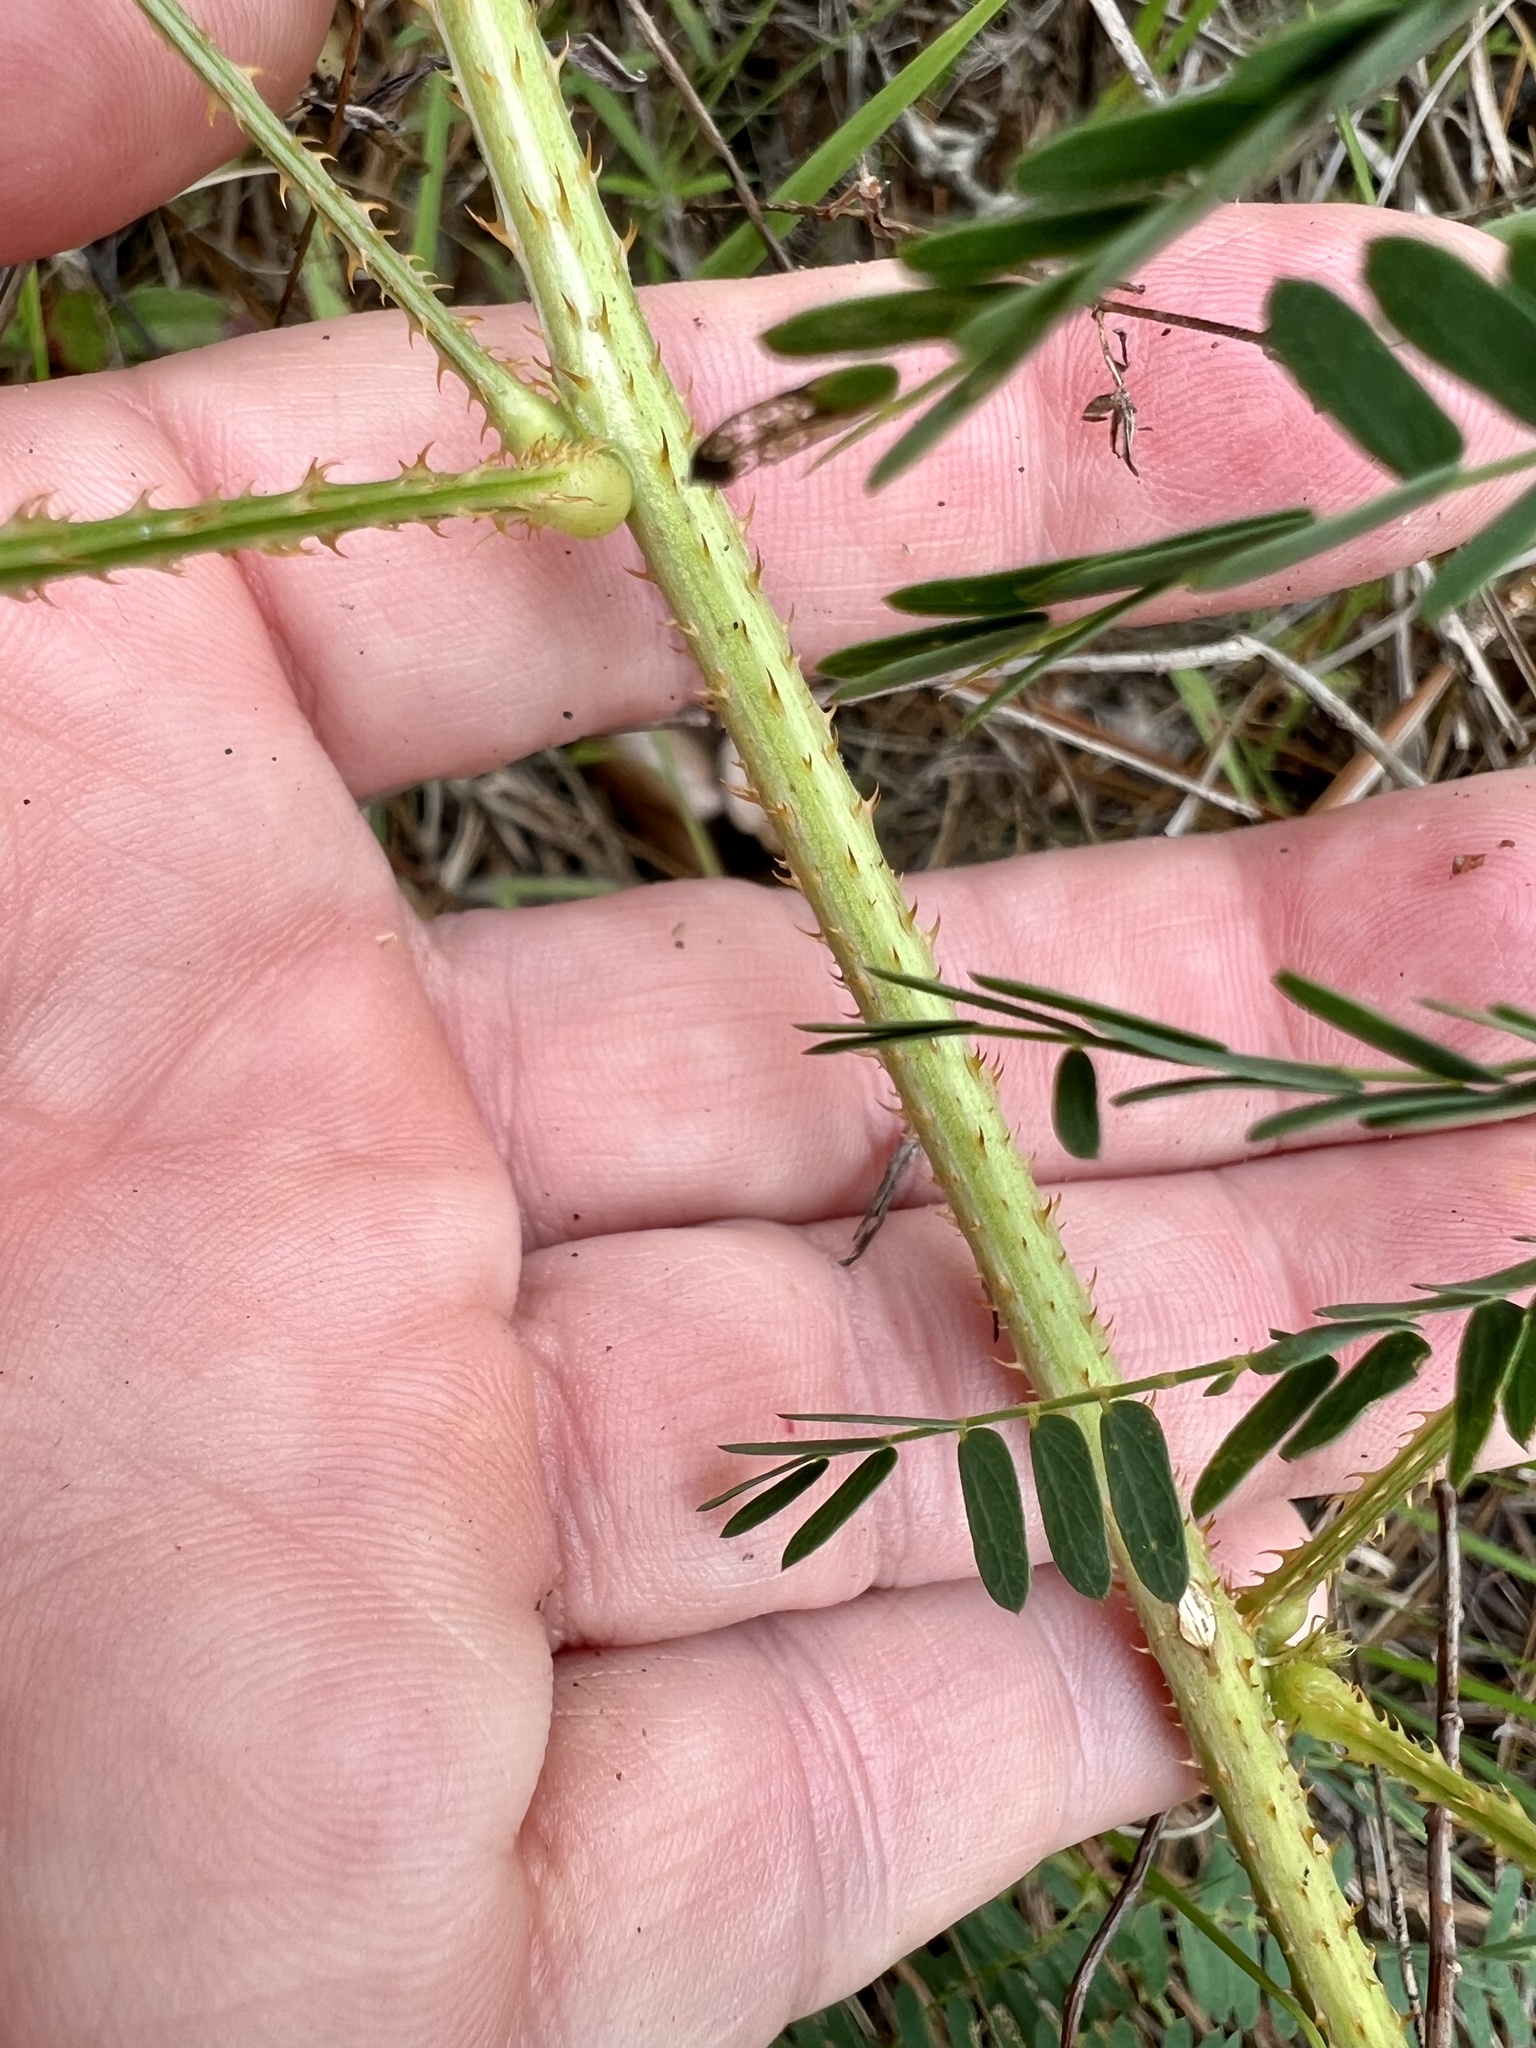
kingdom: Plantae
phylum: Tracheophyta
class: Magnoliopsida
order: Fabales
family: Fabaceae
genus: Mimosa
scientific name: Mimosa hystricina
